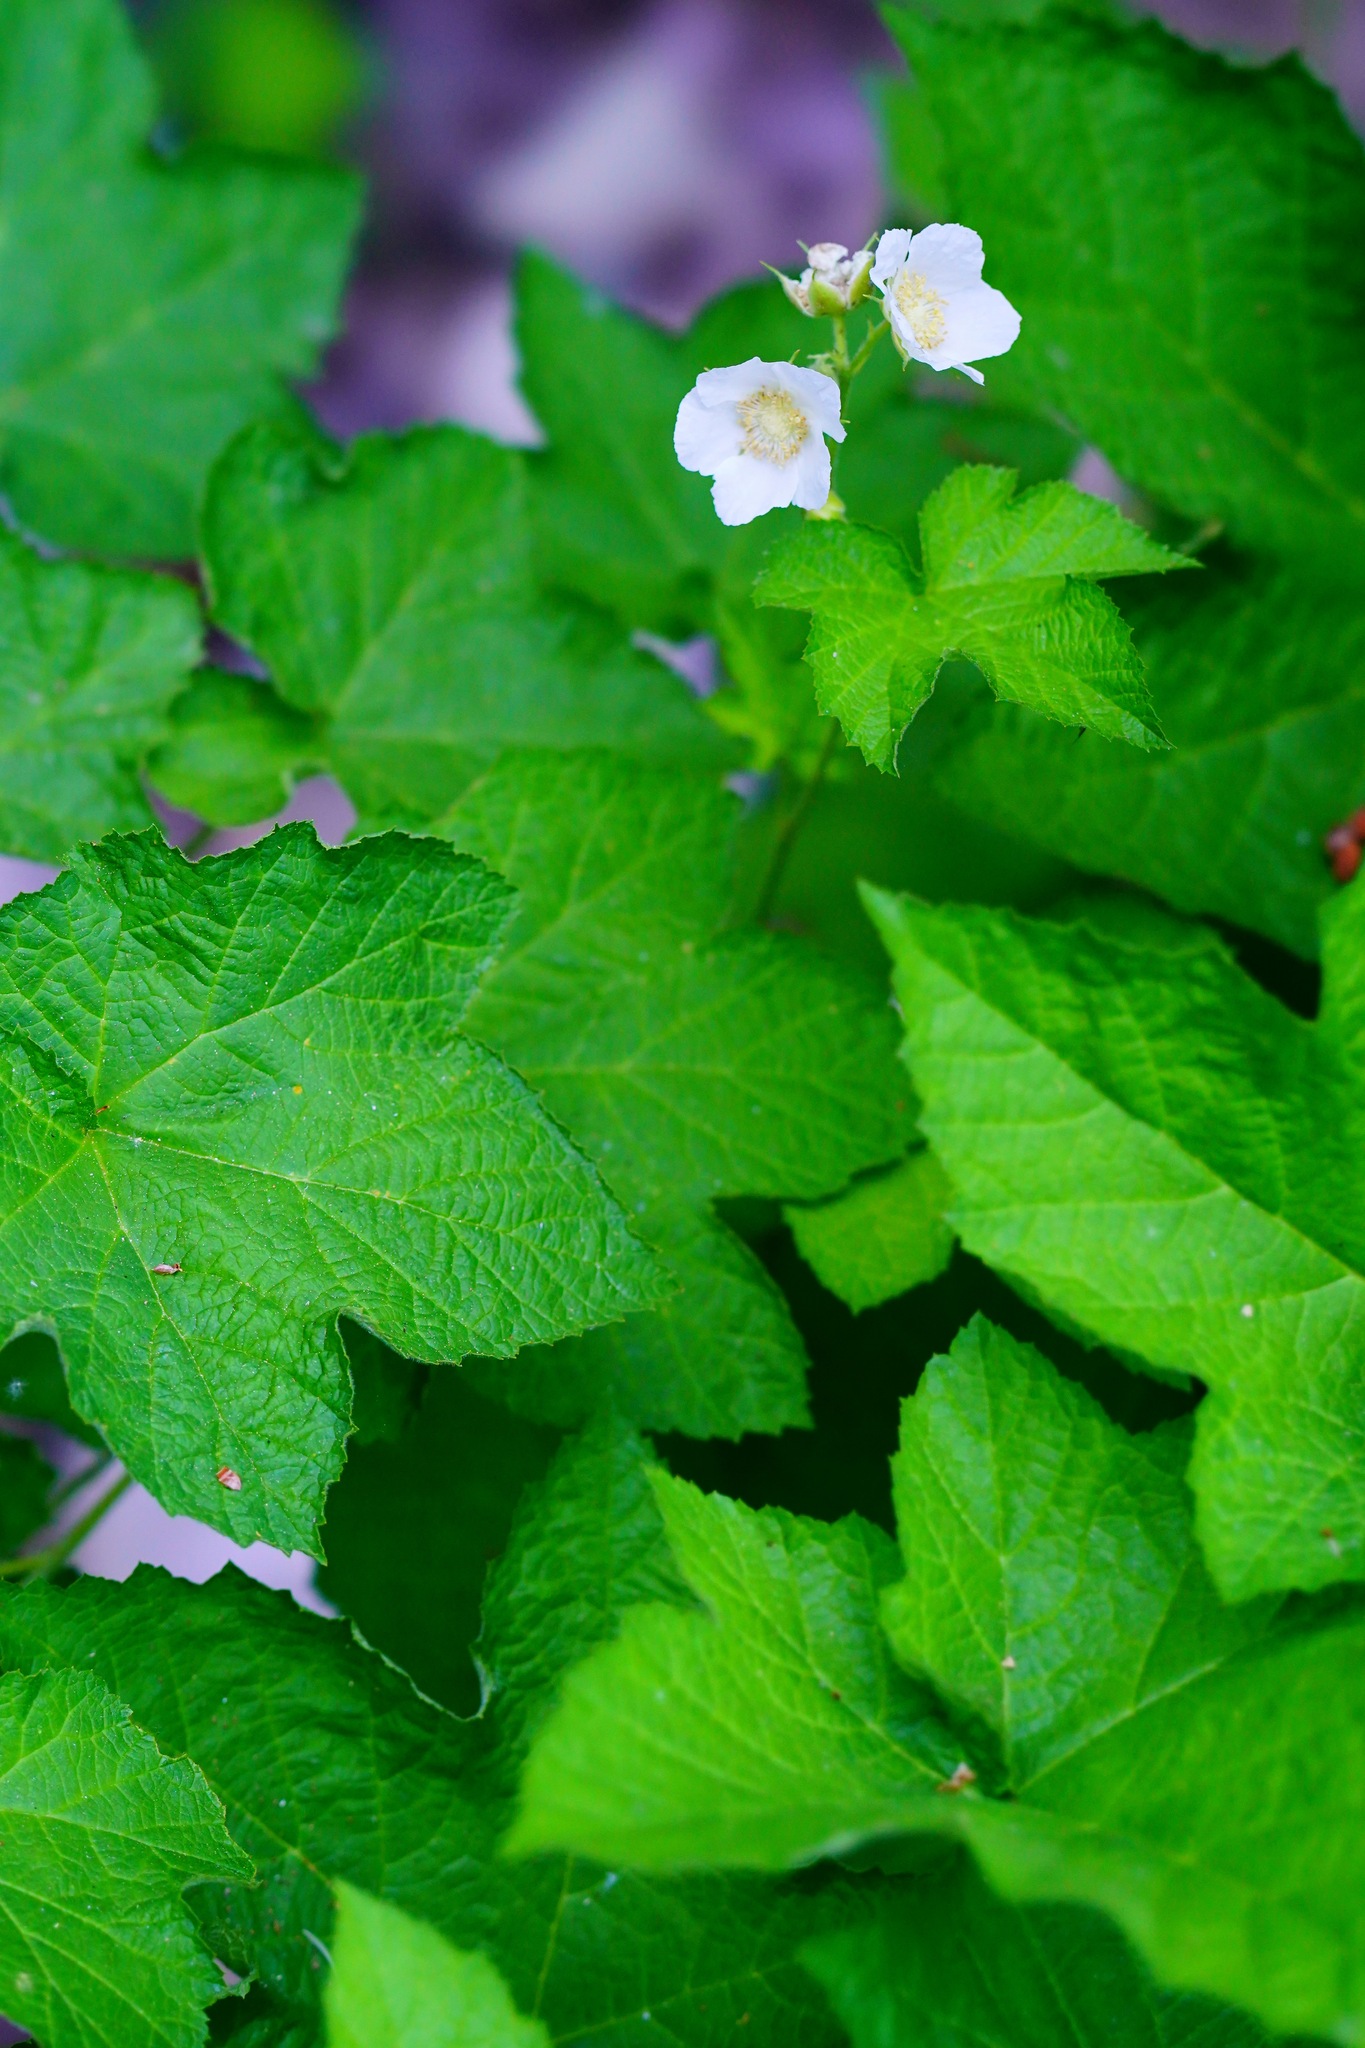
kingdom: Plantae
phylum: Tracheophyta
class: Magnoliopsida
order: Rosales
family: Rosaceae
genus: Rubus
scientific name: Rubus parviflorus
